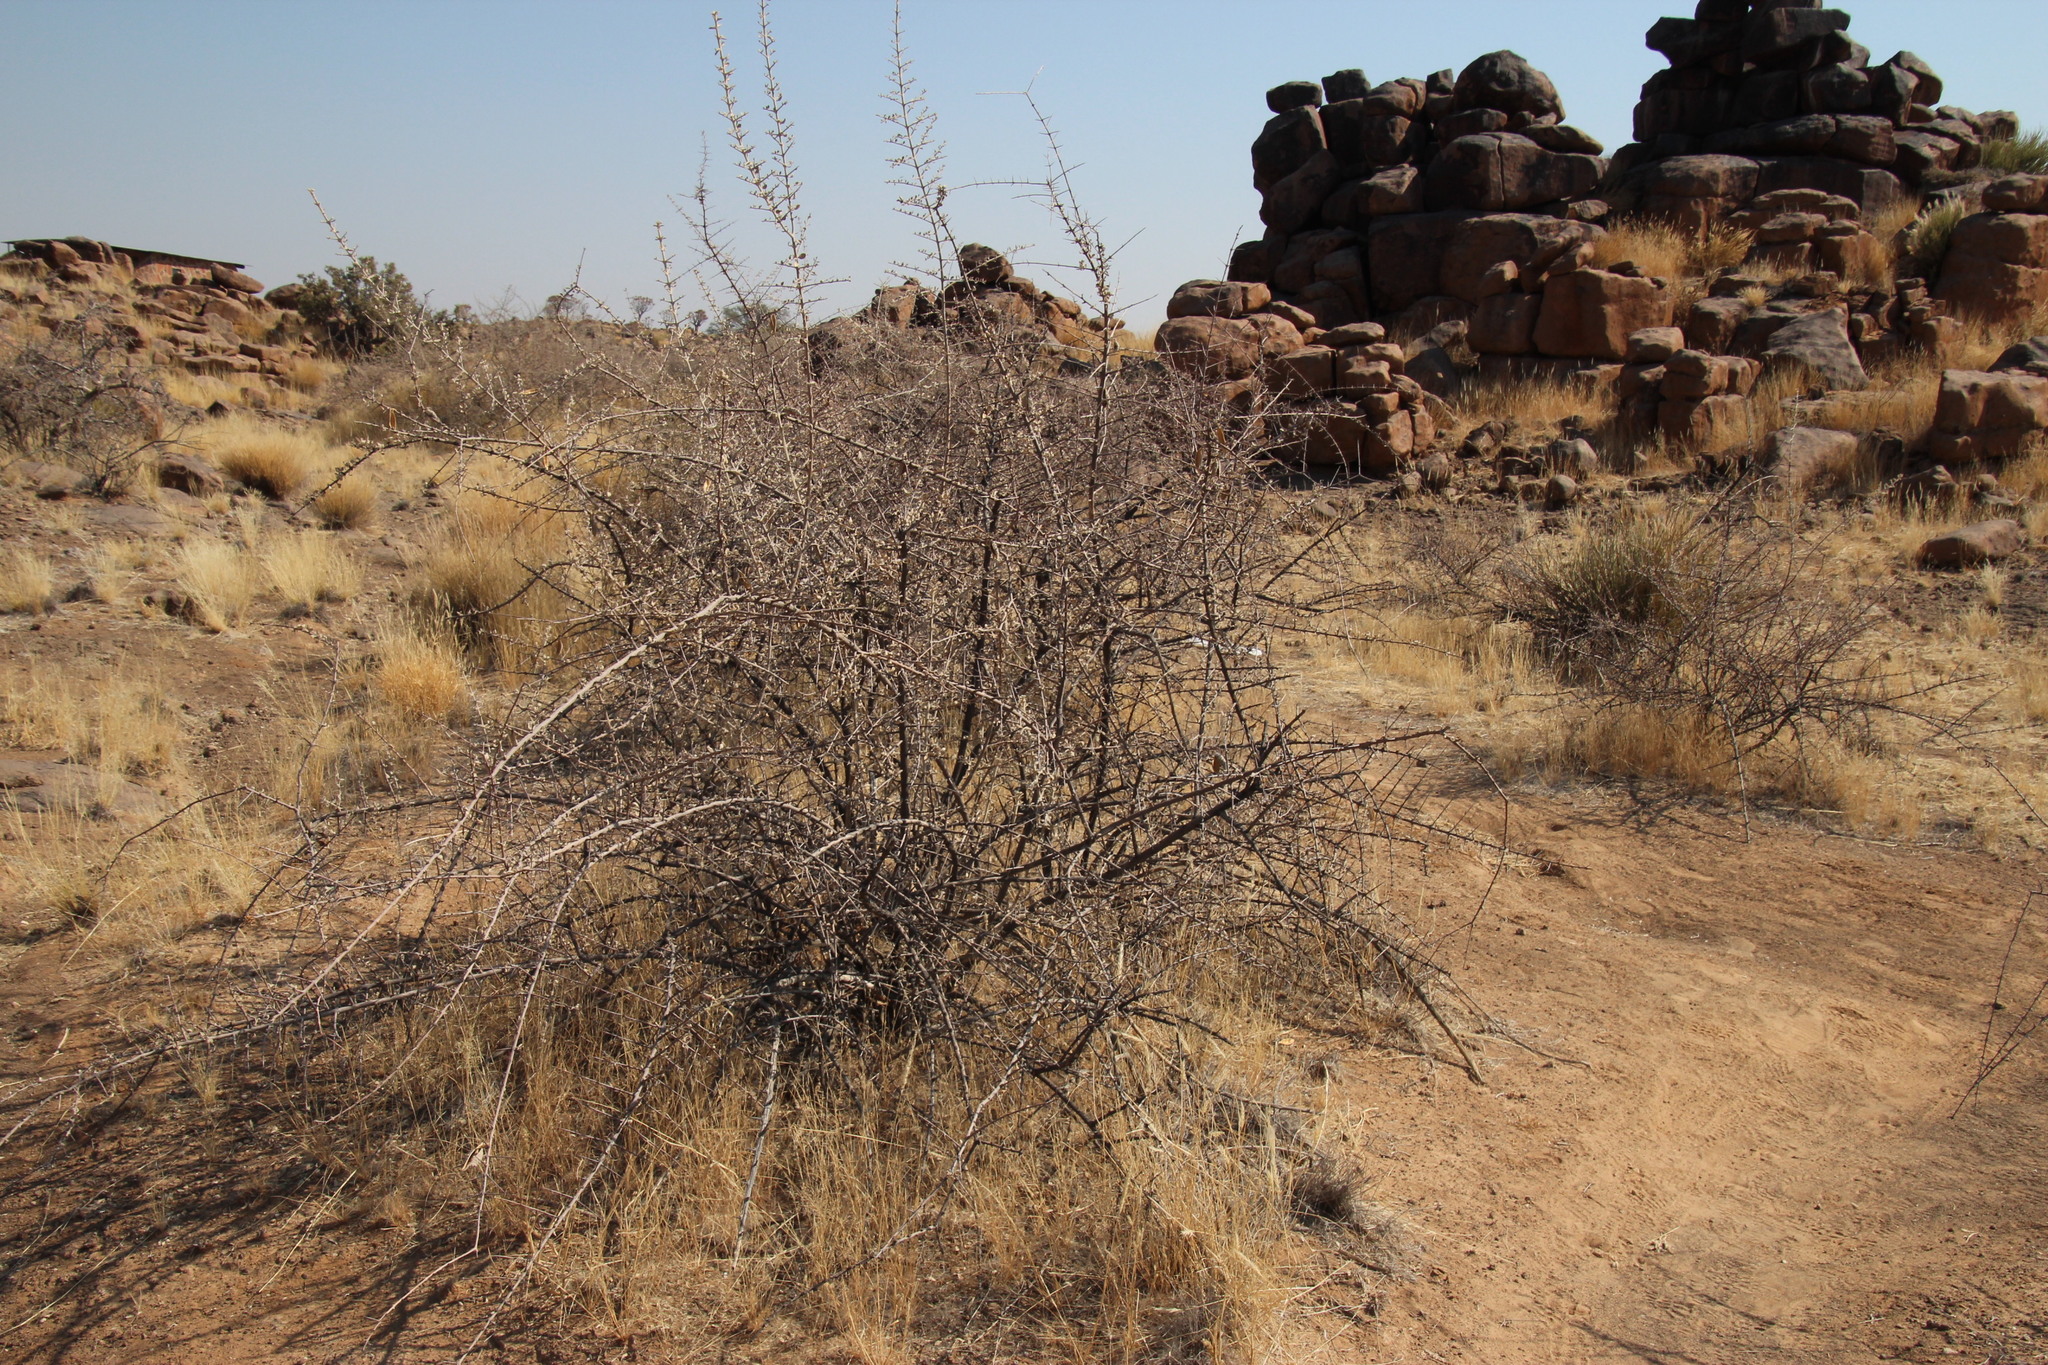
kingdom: Plantae
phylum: Tracheophyta
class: Magnoliopsida
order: Lamiales
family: Bignoniaceae
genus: Catophractes
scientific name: Catophractes alexandri
